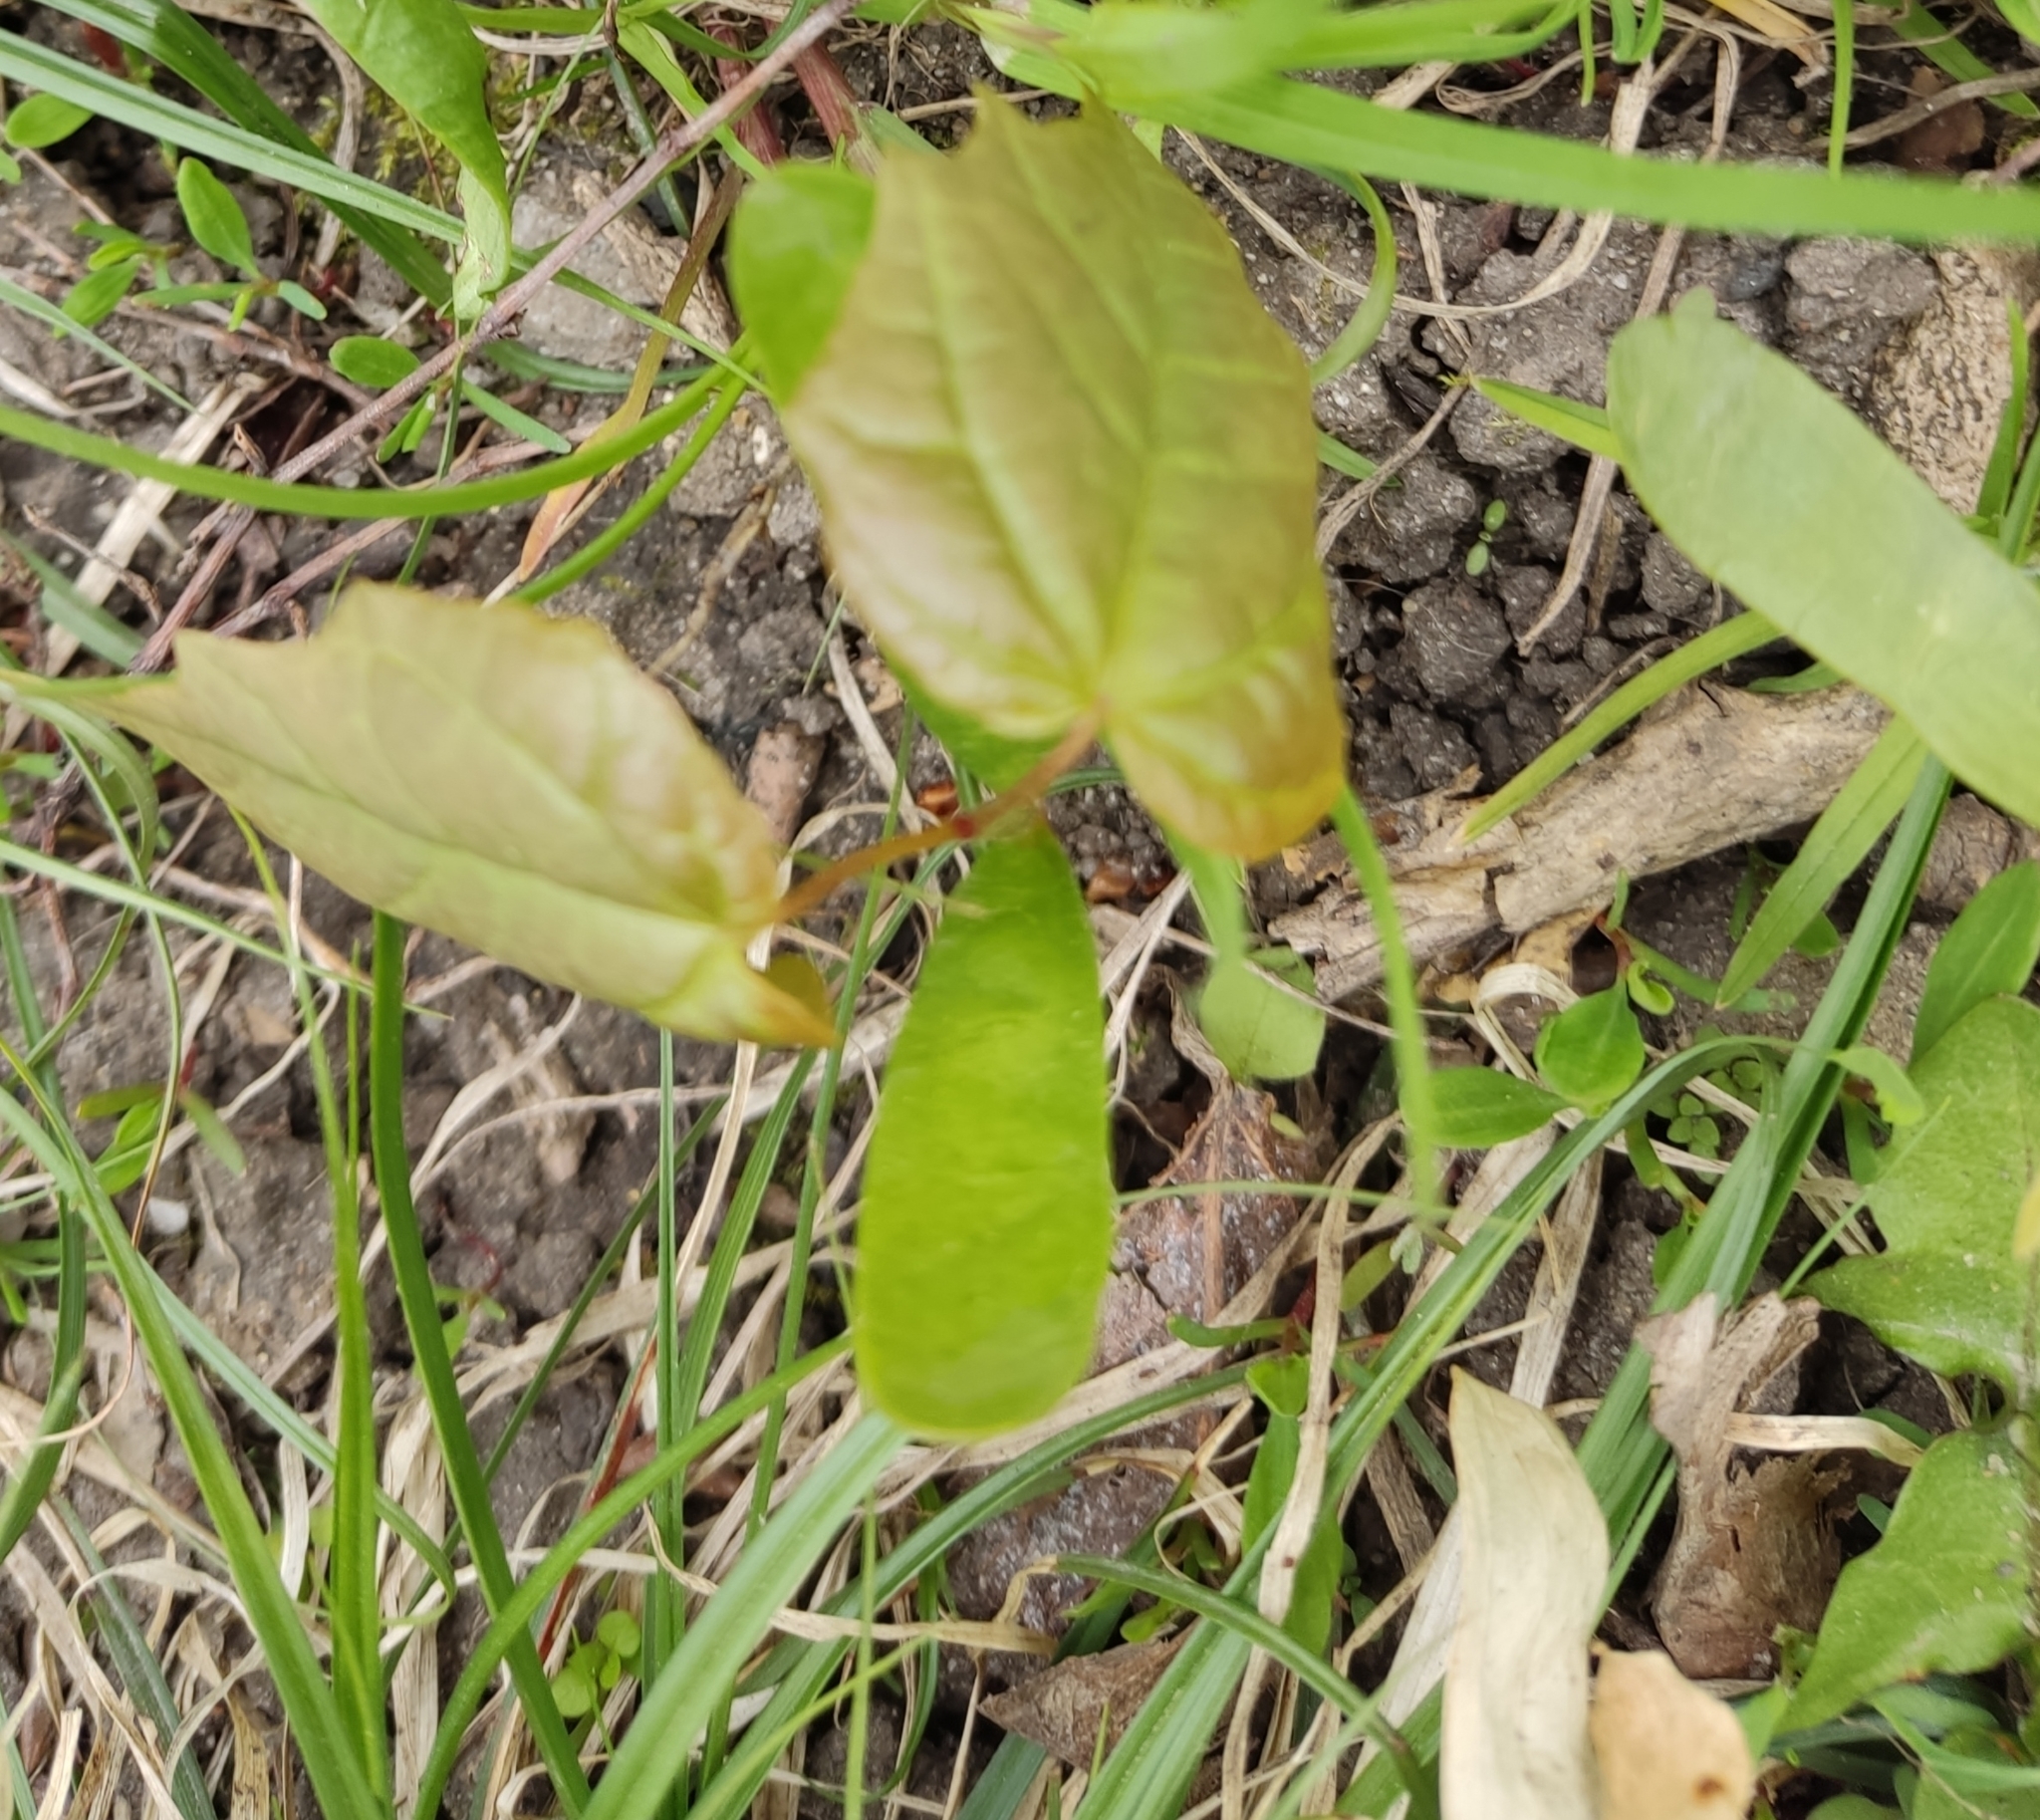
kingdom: Plantae
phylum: Tracheophyta
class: Magnoliopsida
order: Sapindales
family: Sapindaceae
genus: Acer
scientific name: Acer platanoides
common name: Norway maple
